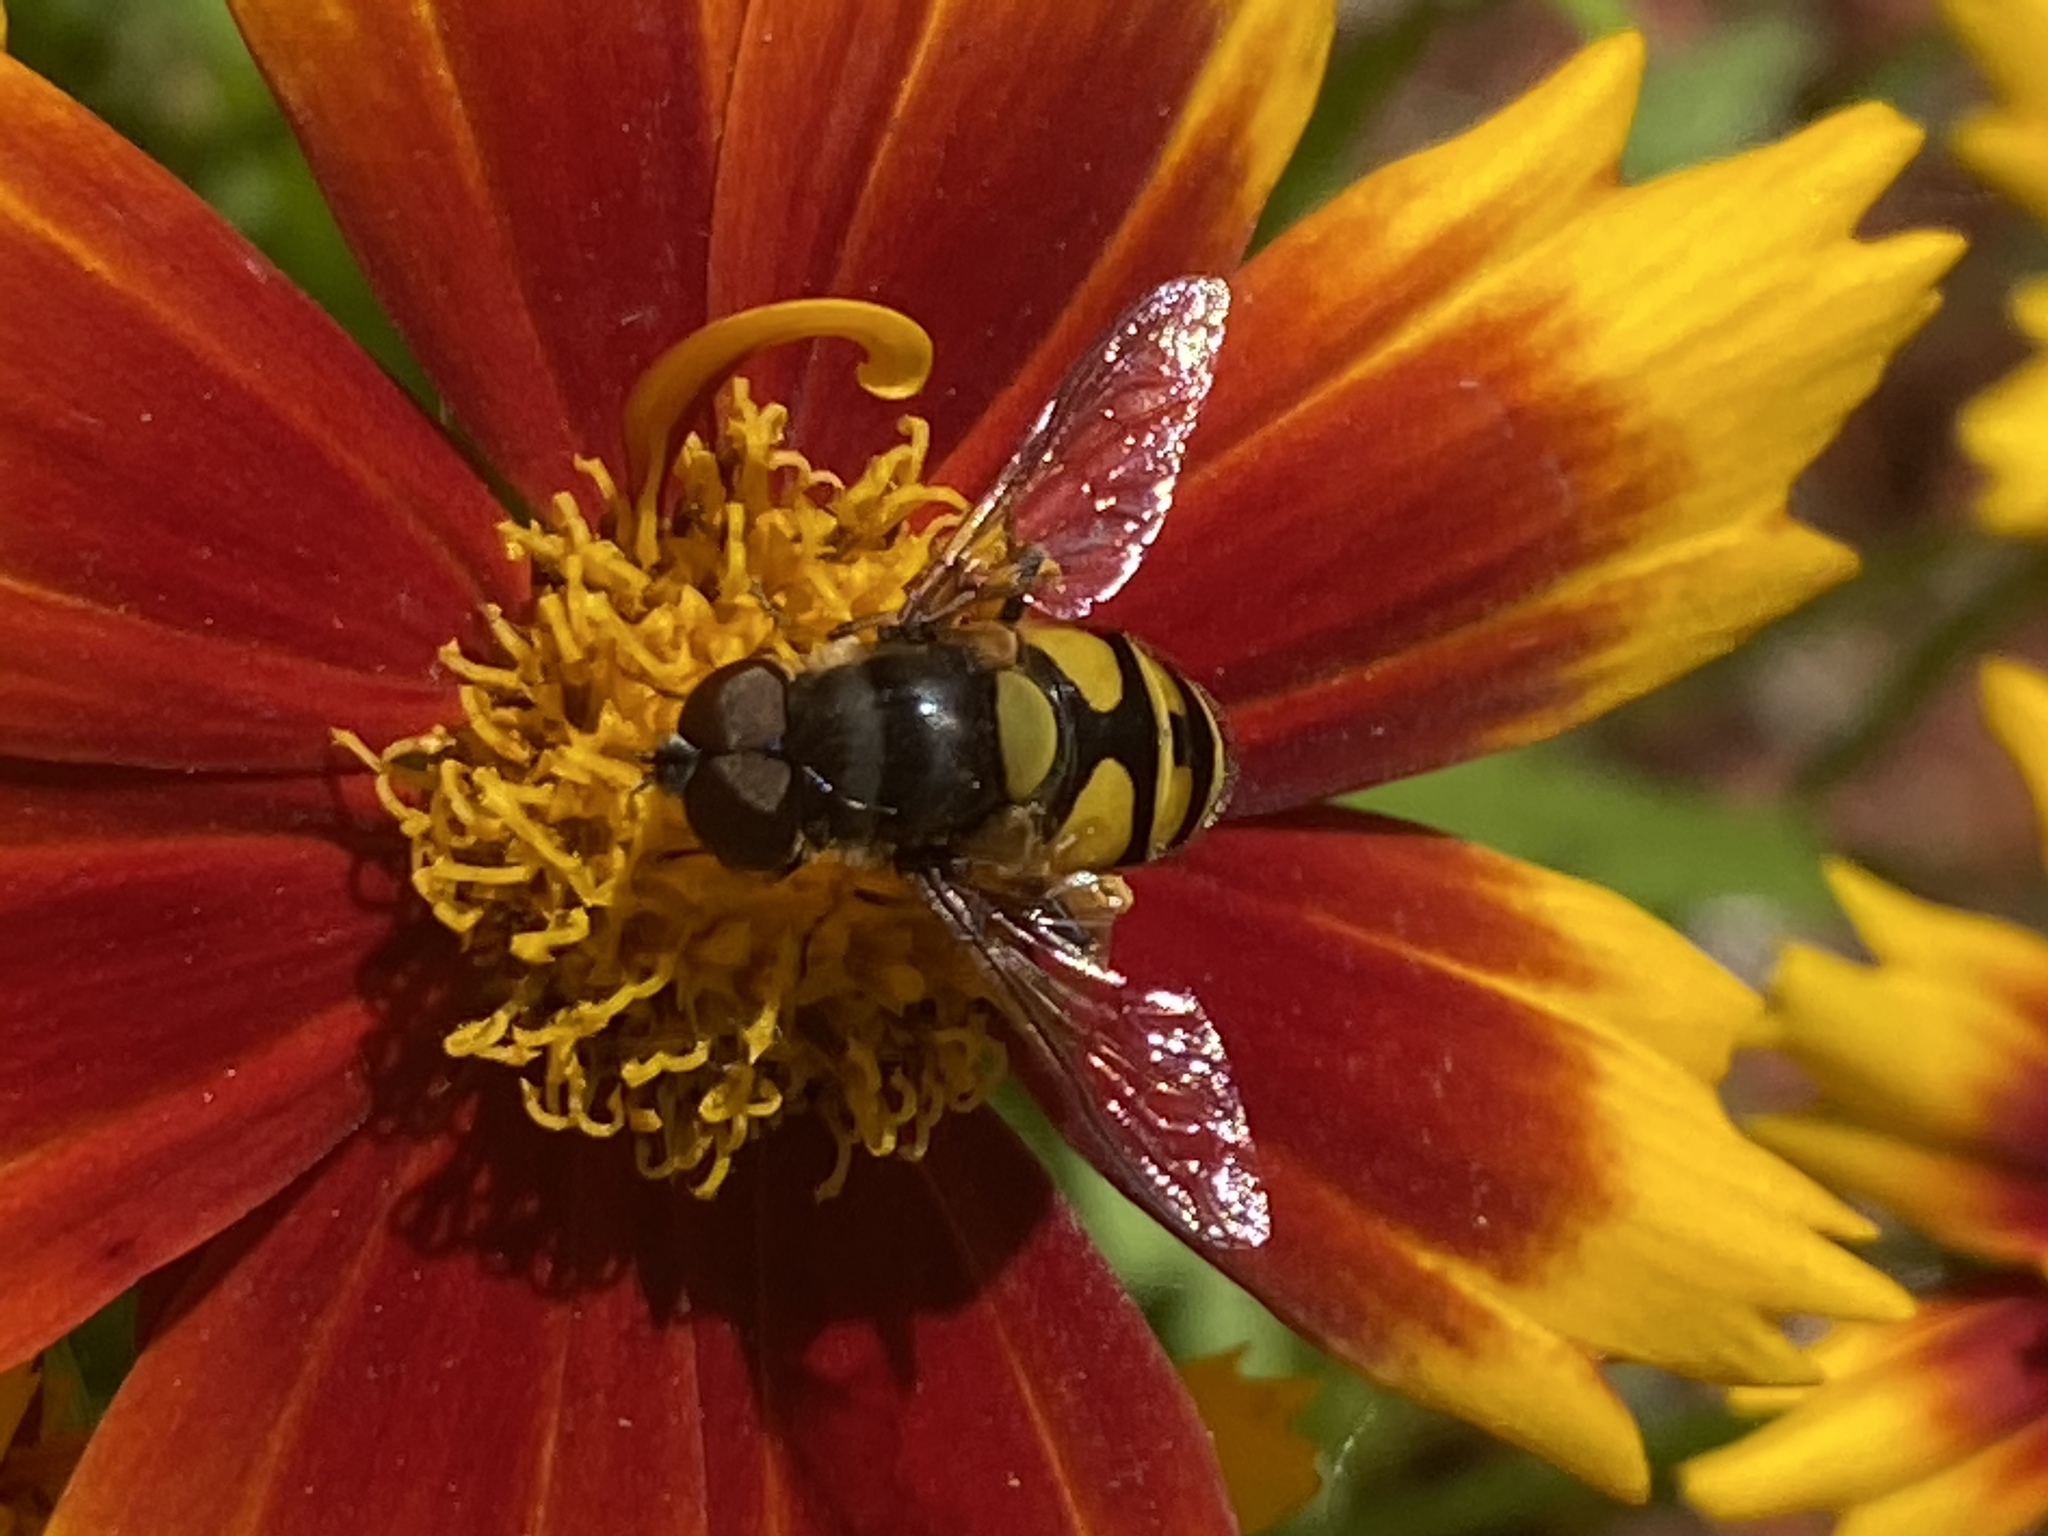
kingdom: Animalia
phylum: Arthropoda
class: Insecta
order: Diptera
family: Syrphidae
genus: Eristalis
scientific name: Eristalis transversa
